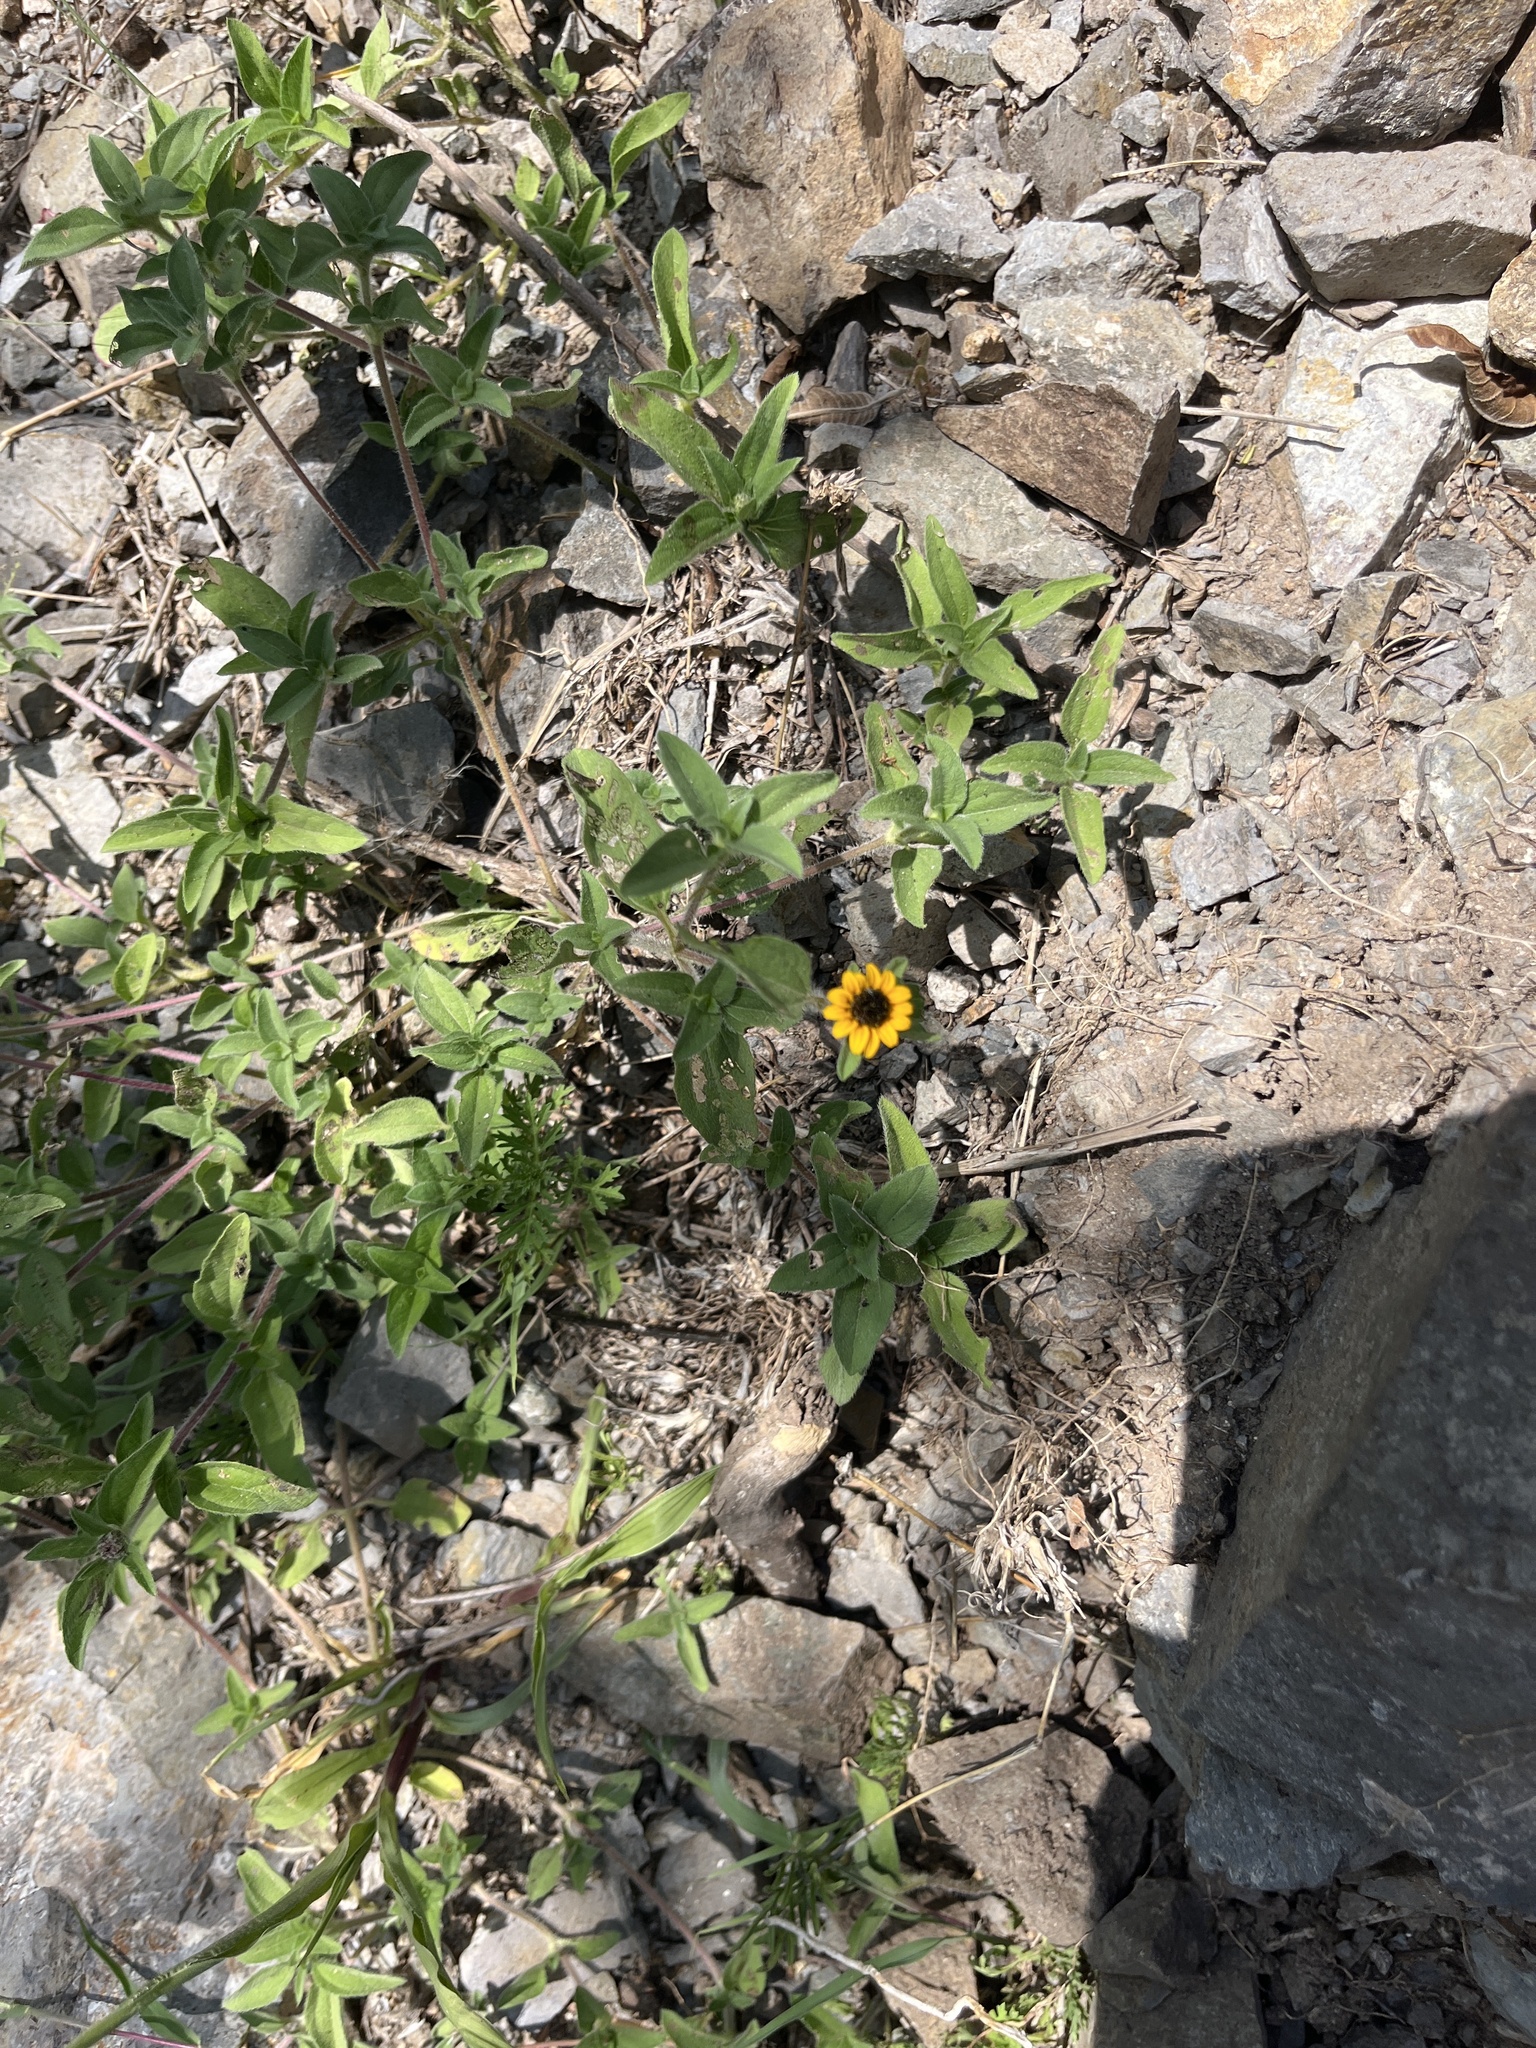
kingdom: Plantae
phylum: Tracheophyta
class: Magnoliopsida
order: Asterales
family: Asteraceae
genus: Sanvitalia
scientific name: Sanvitalia procumbens
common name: Mexican creeping zinnia
